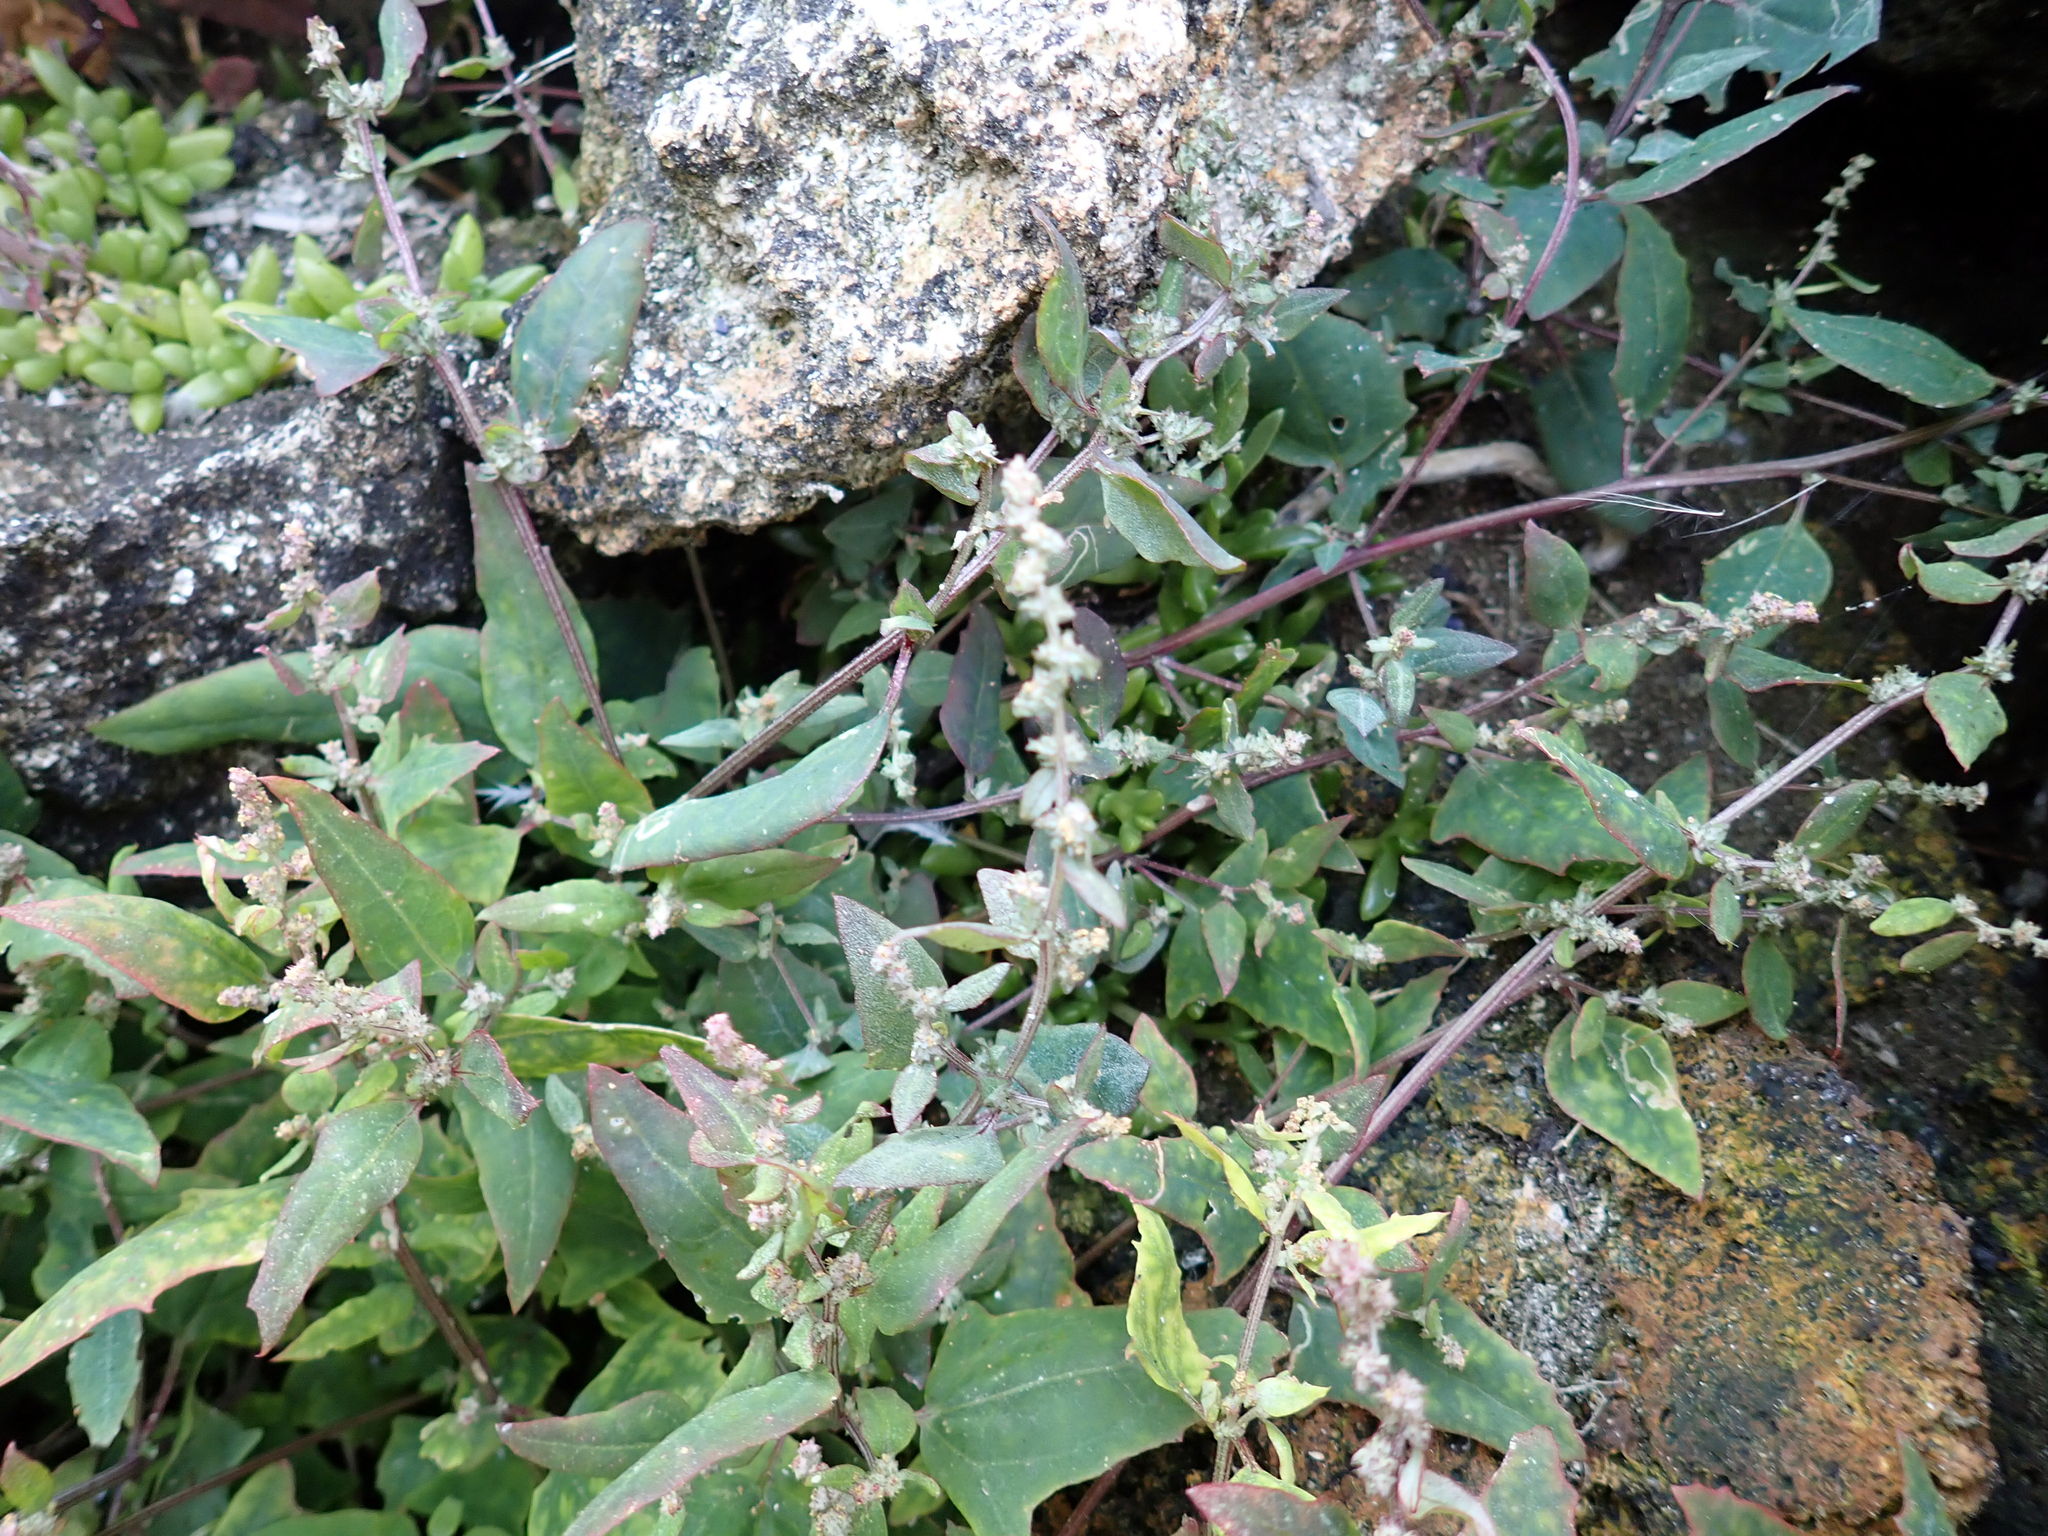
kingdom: Plantae
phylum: Tracheophyta
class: Magnoliopsida
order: Caryophyllales
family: Amaranthaceae
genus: Atriplex
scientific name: Atriplex prostrata
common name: Spear-leaved orache
